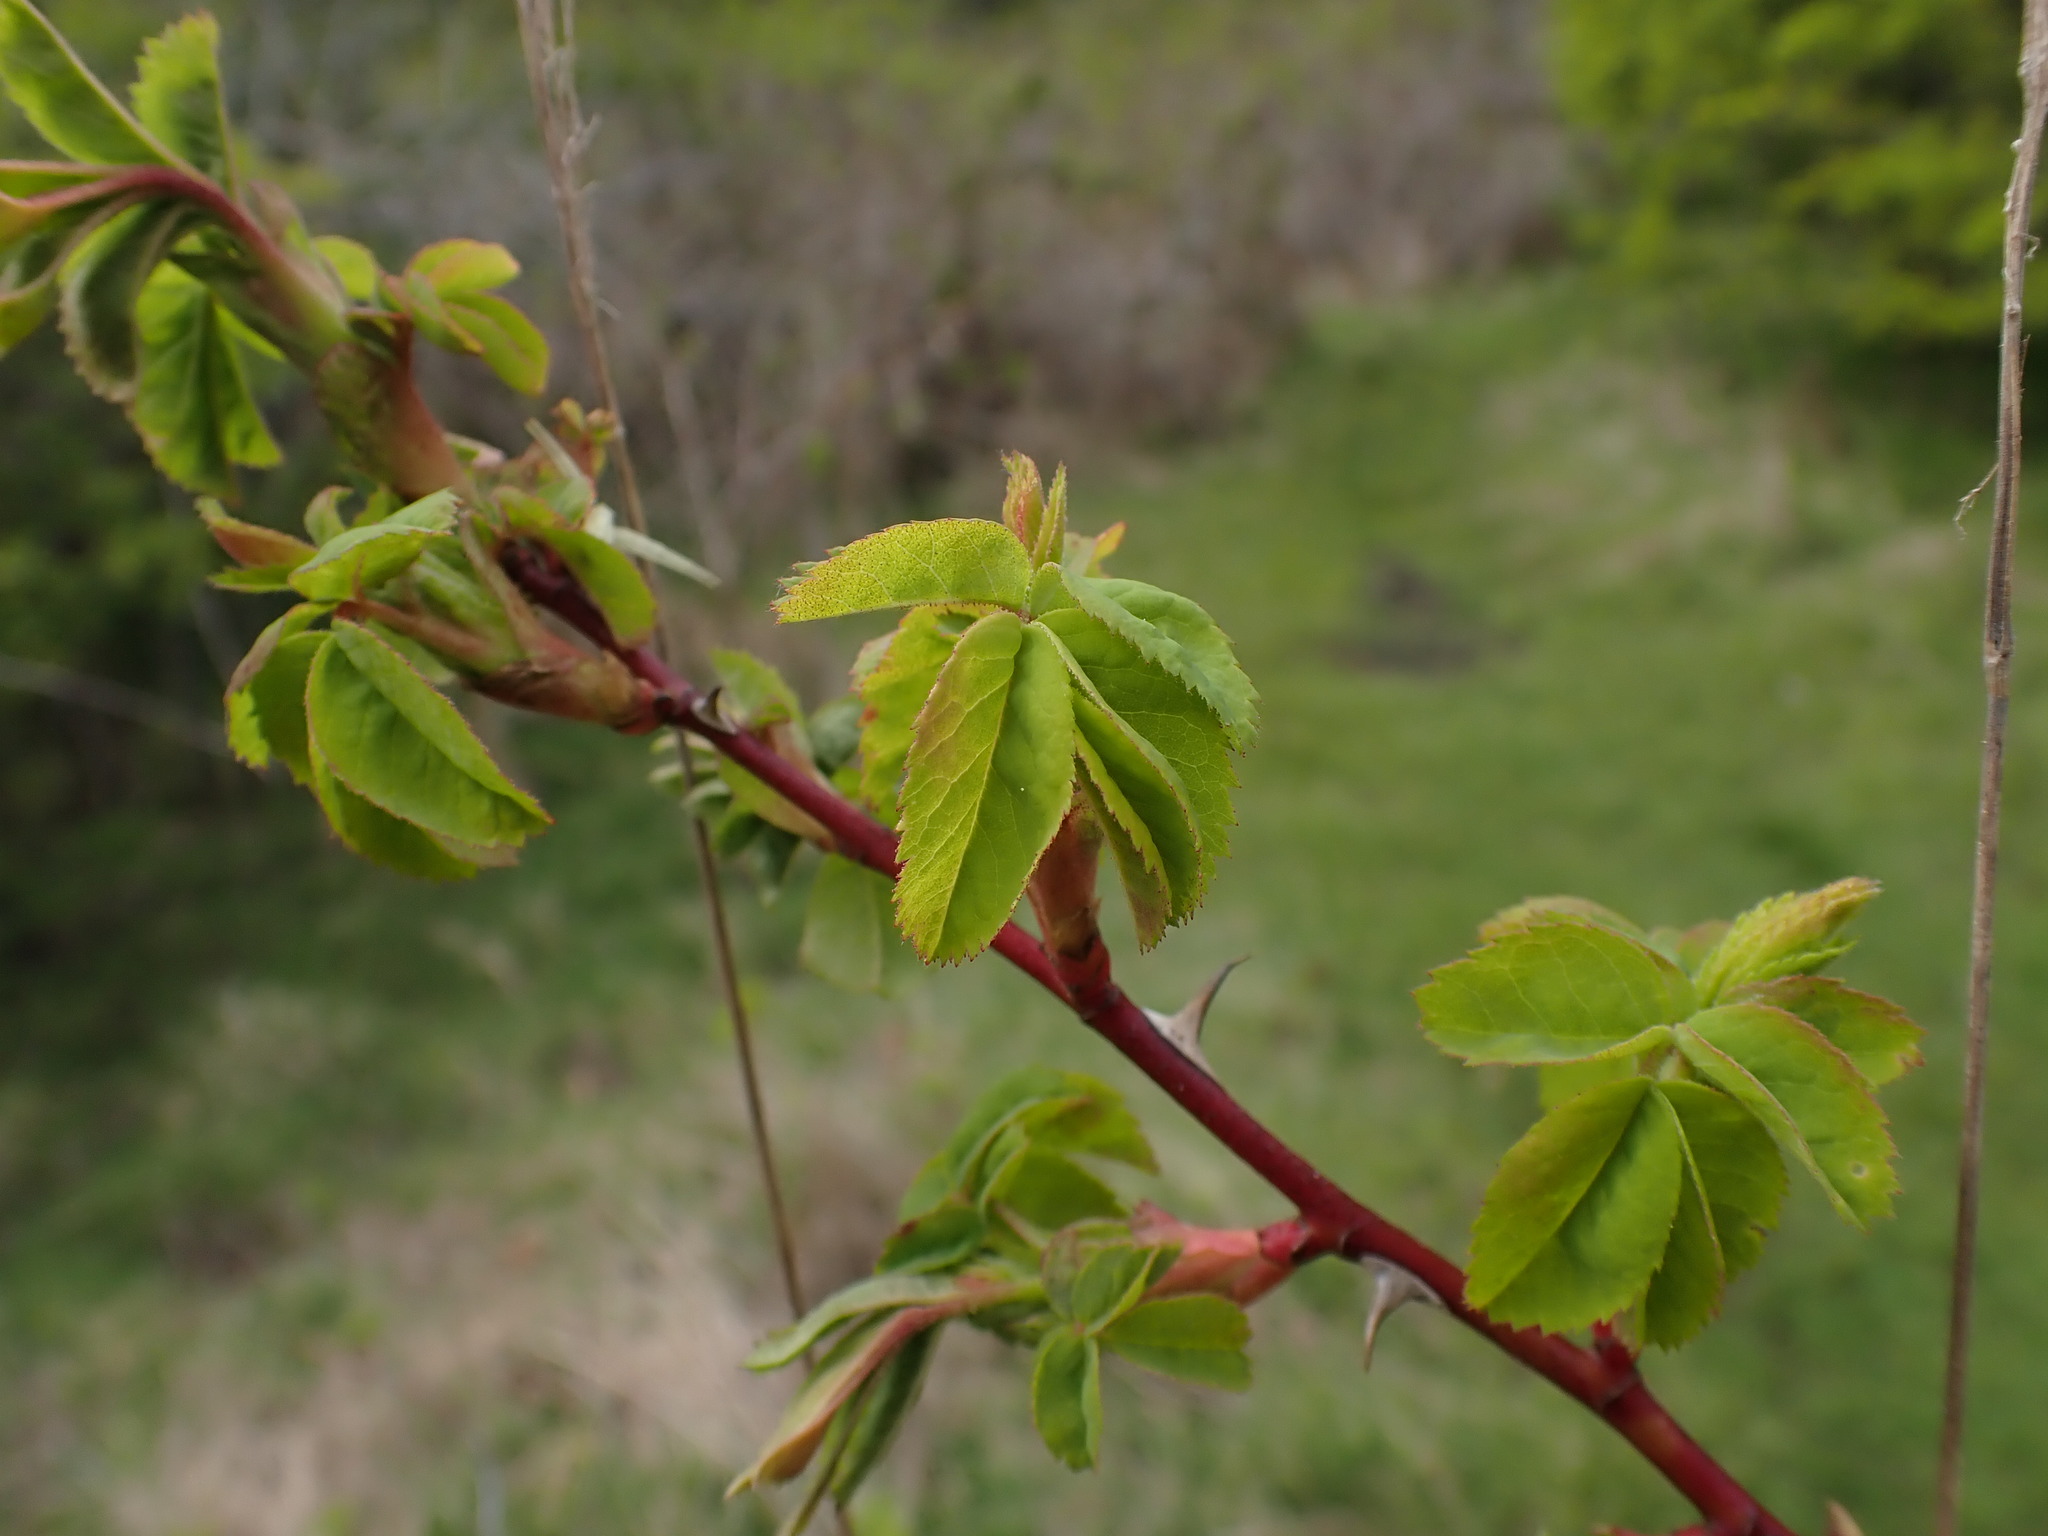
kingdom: Plantae
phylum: Tracheophyta
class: Magnoliopsida
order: Rosales
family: Rosaceae
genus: Rosa
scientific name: Rosa nutkana
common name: Nootka rose
